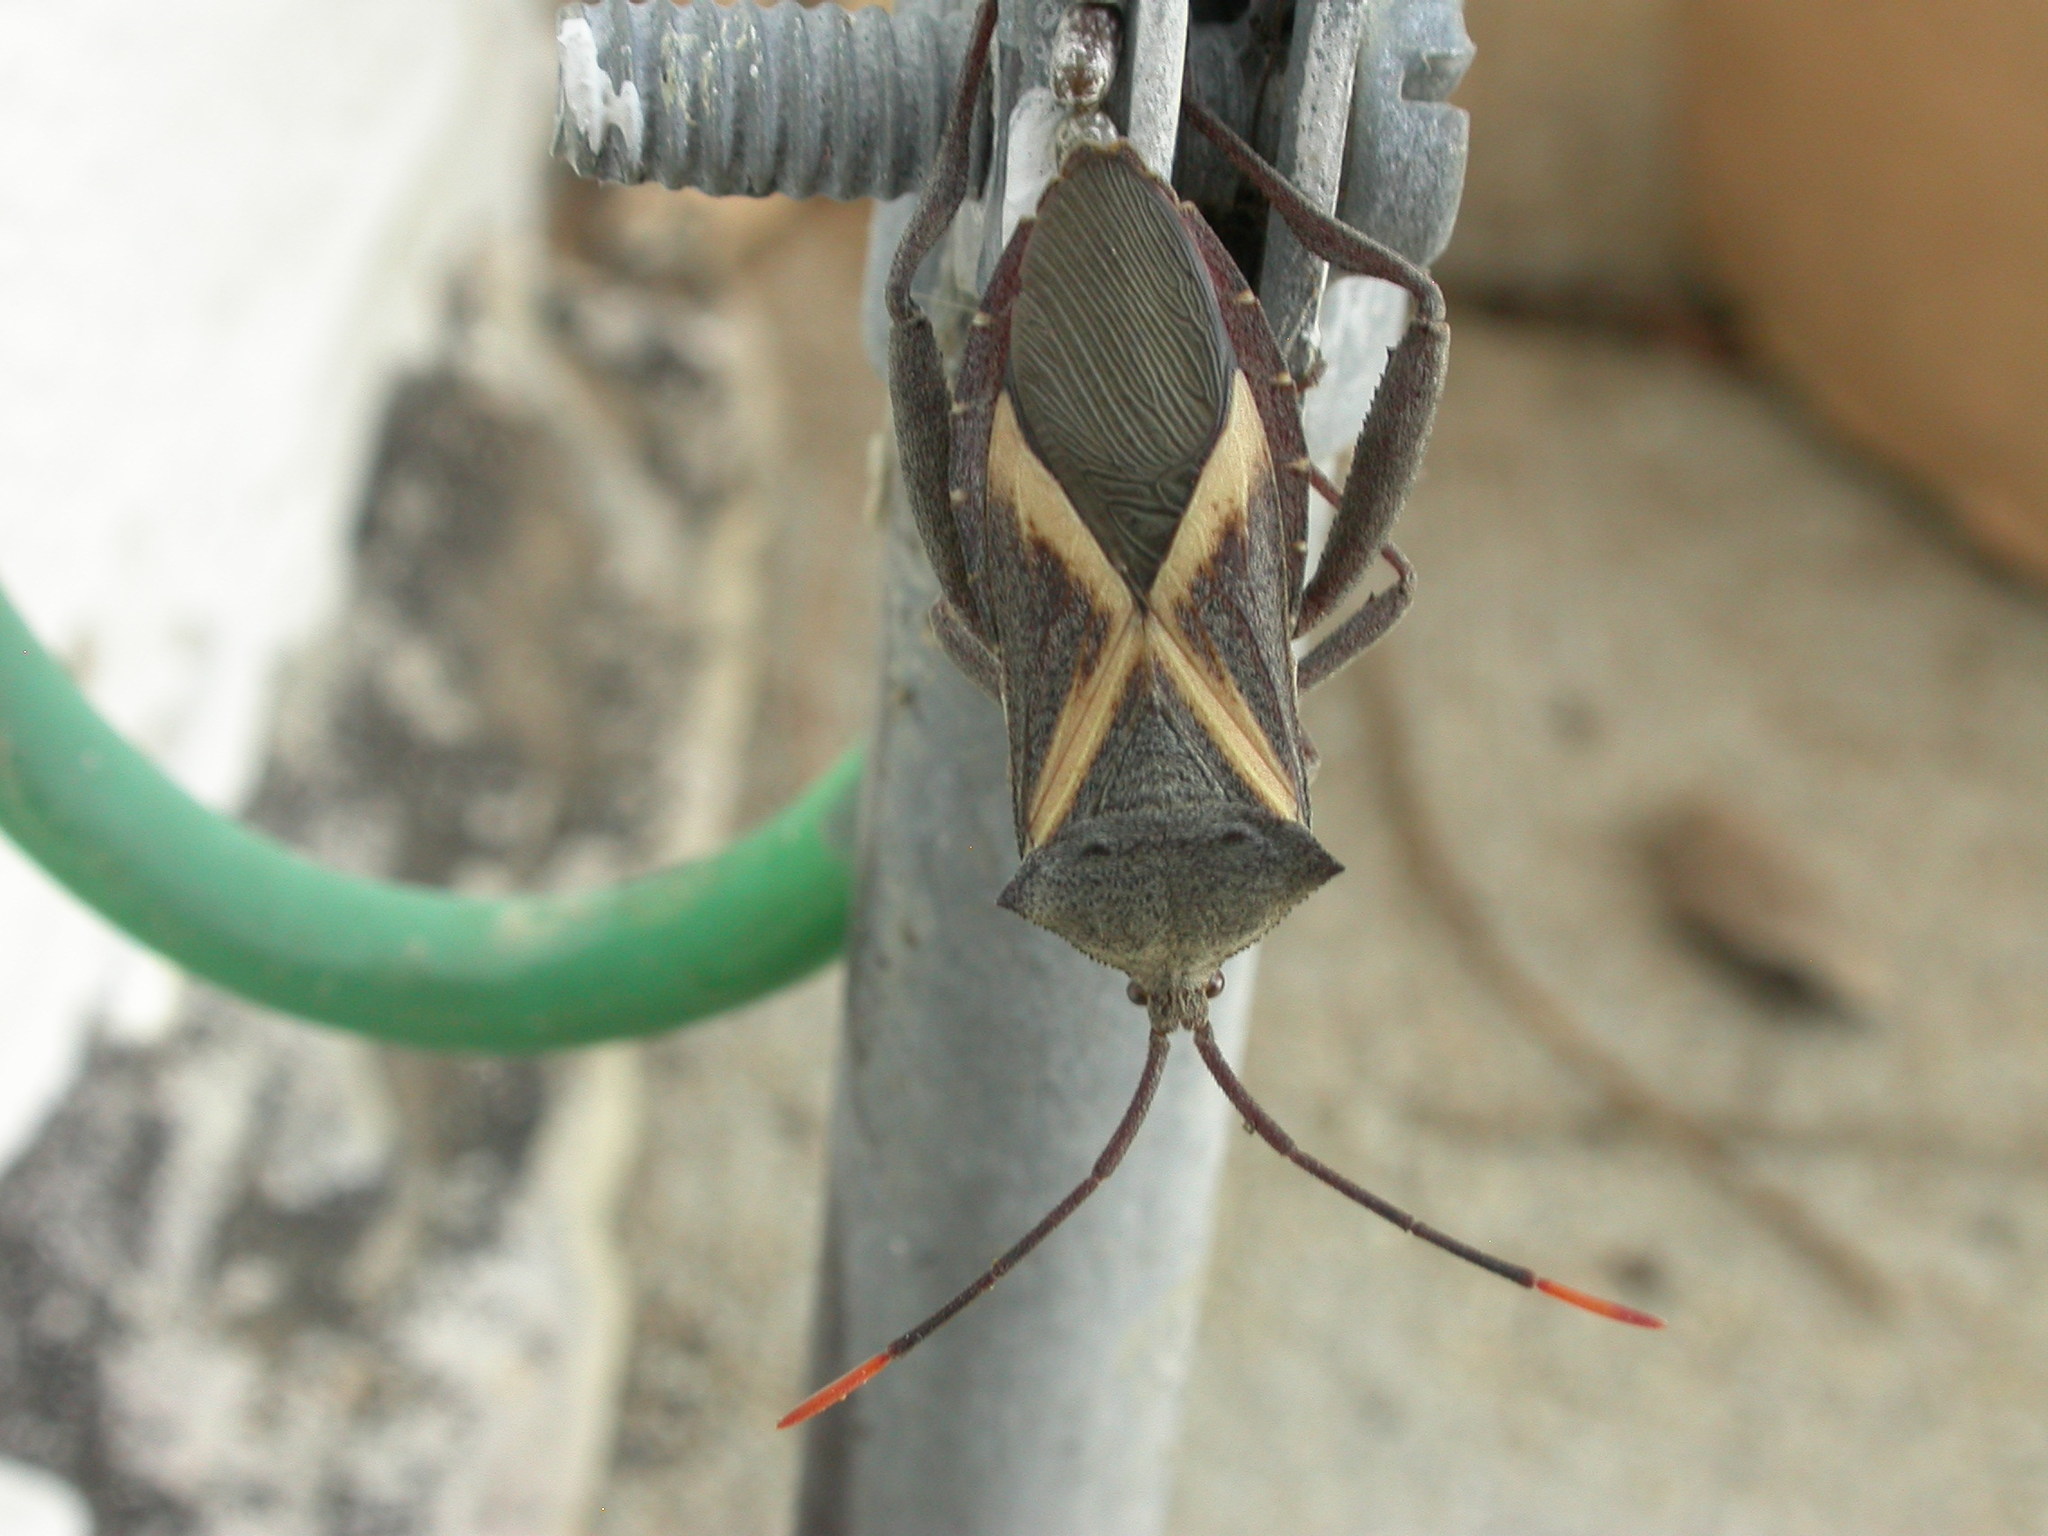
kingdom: Animalia
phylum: Arthropoda
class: Insecta
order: Hemiptera
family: Coreidae
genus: Mictis
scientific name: Mictis profana
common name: Crusader bug
